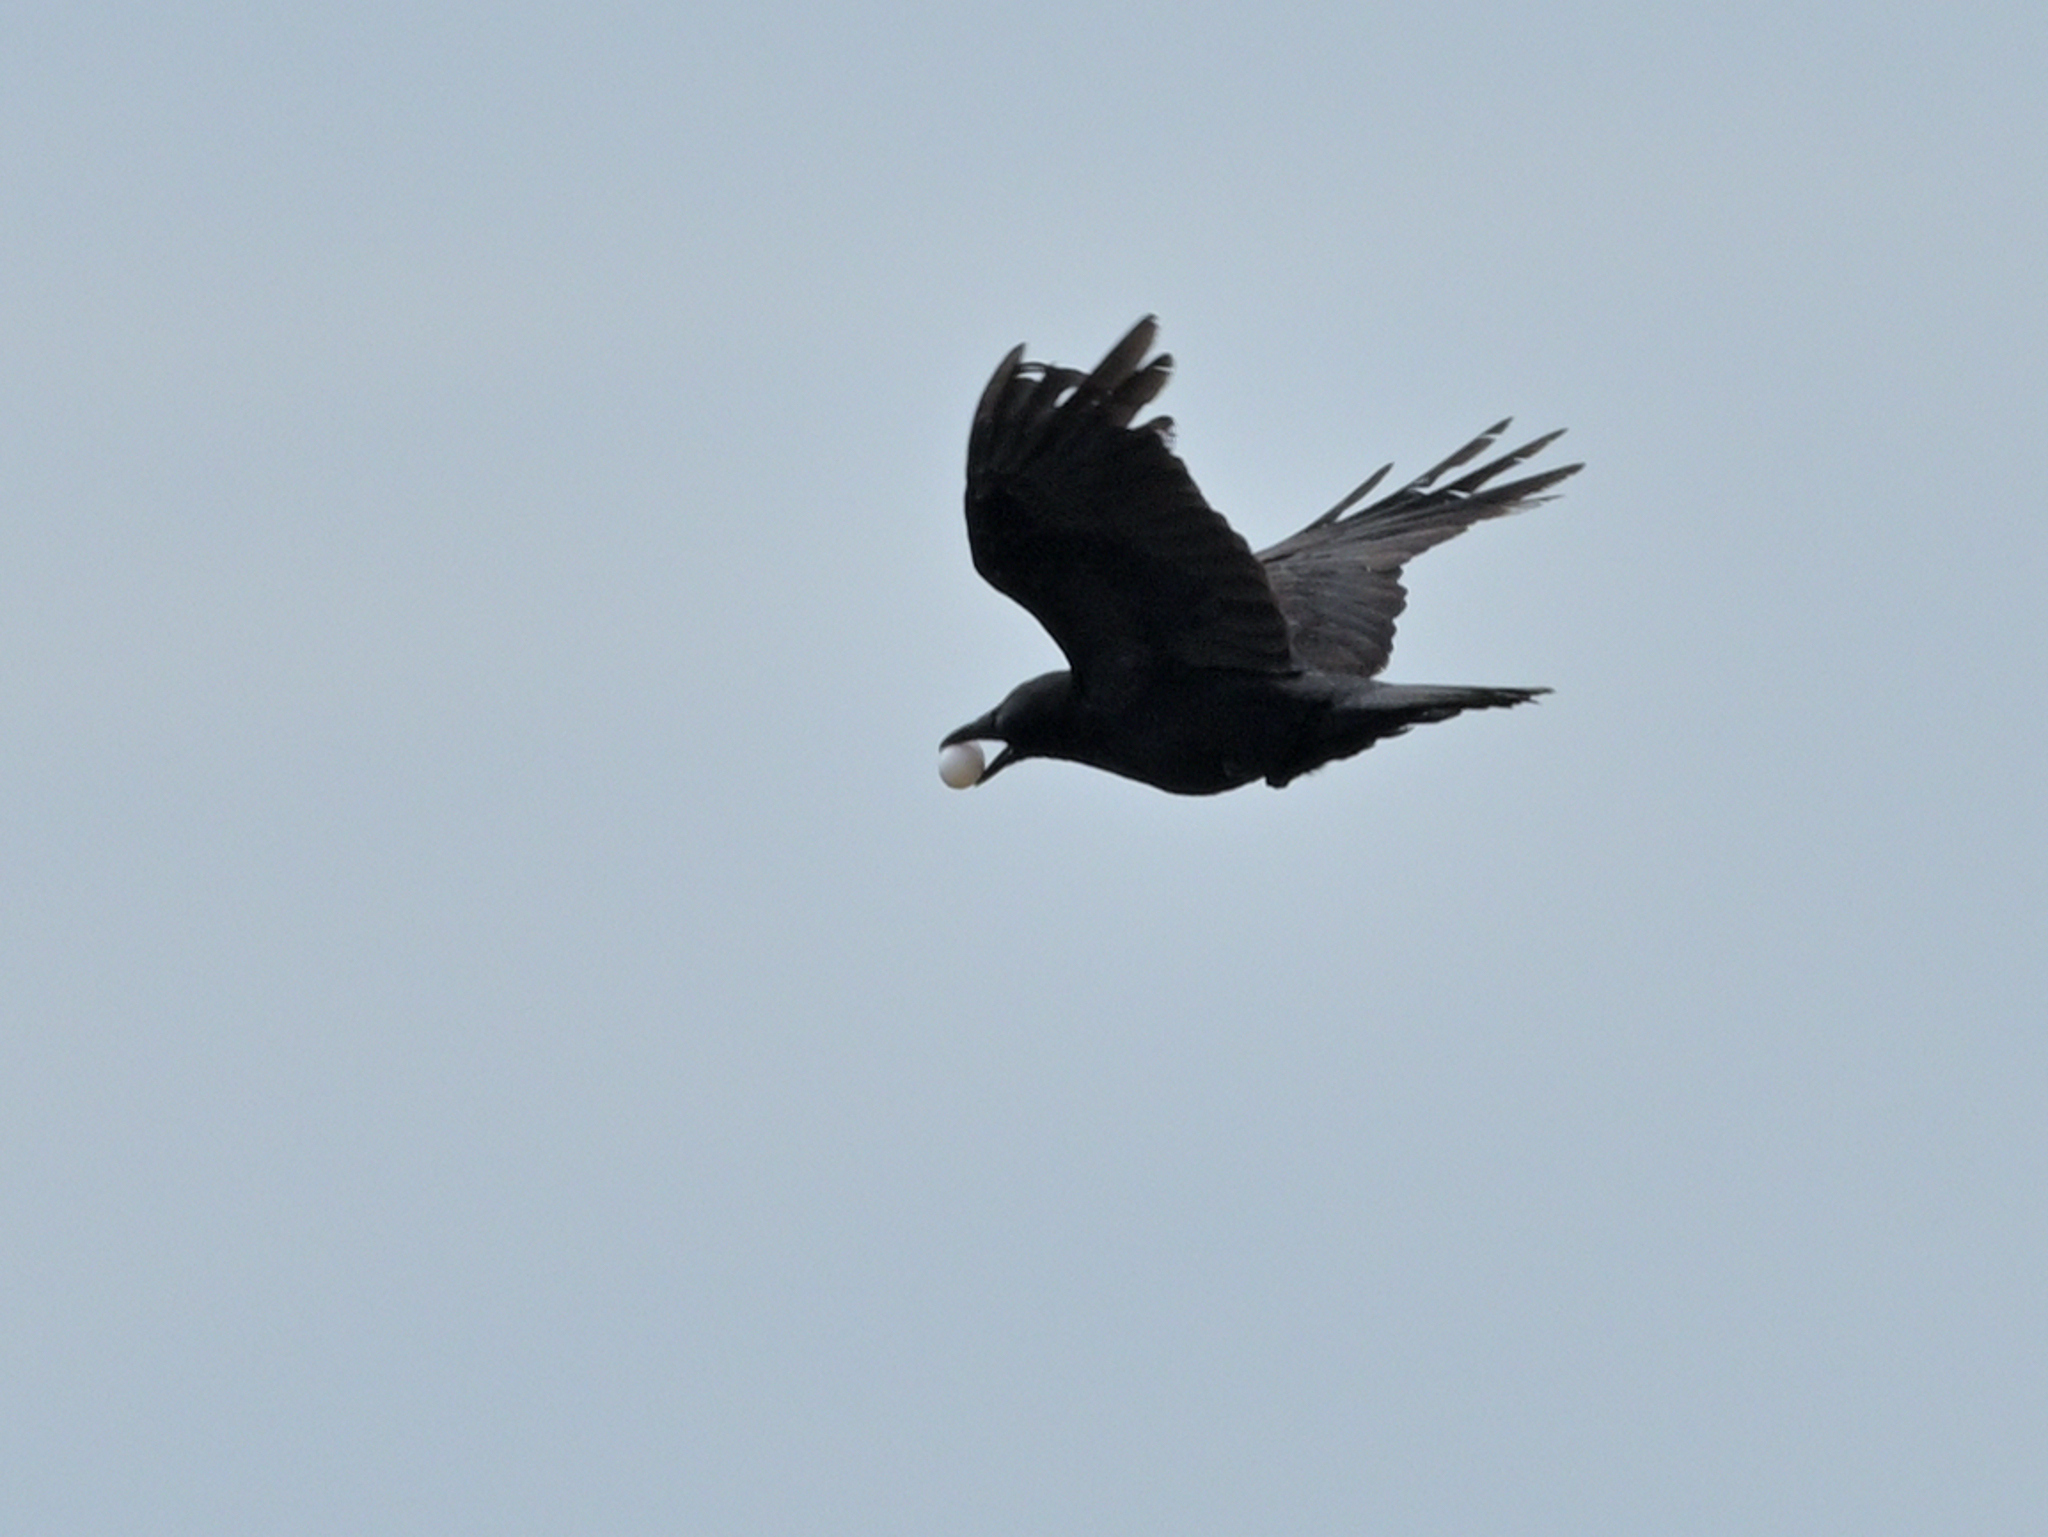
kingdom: Animalia
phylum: Chordata
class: Aves
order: Passeriformes
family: Corvidae
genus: Corvus
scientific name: Corvus corone
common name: Carrion crow
